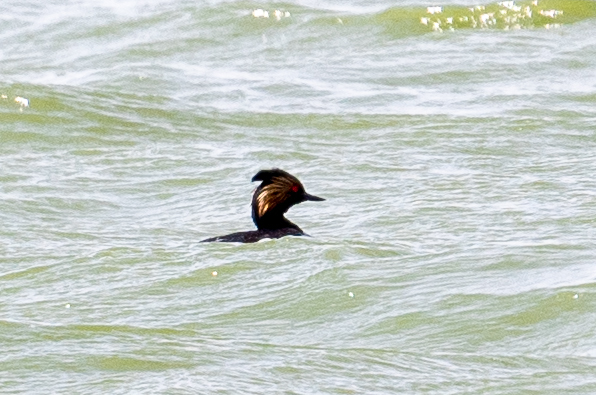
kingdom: Animalia
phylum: Chordata
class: Aves
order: Podicipediformes
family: Podicipedidae
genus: Podiceps
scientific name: Podiceps nigricollis
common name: Black-necked grebe
